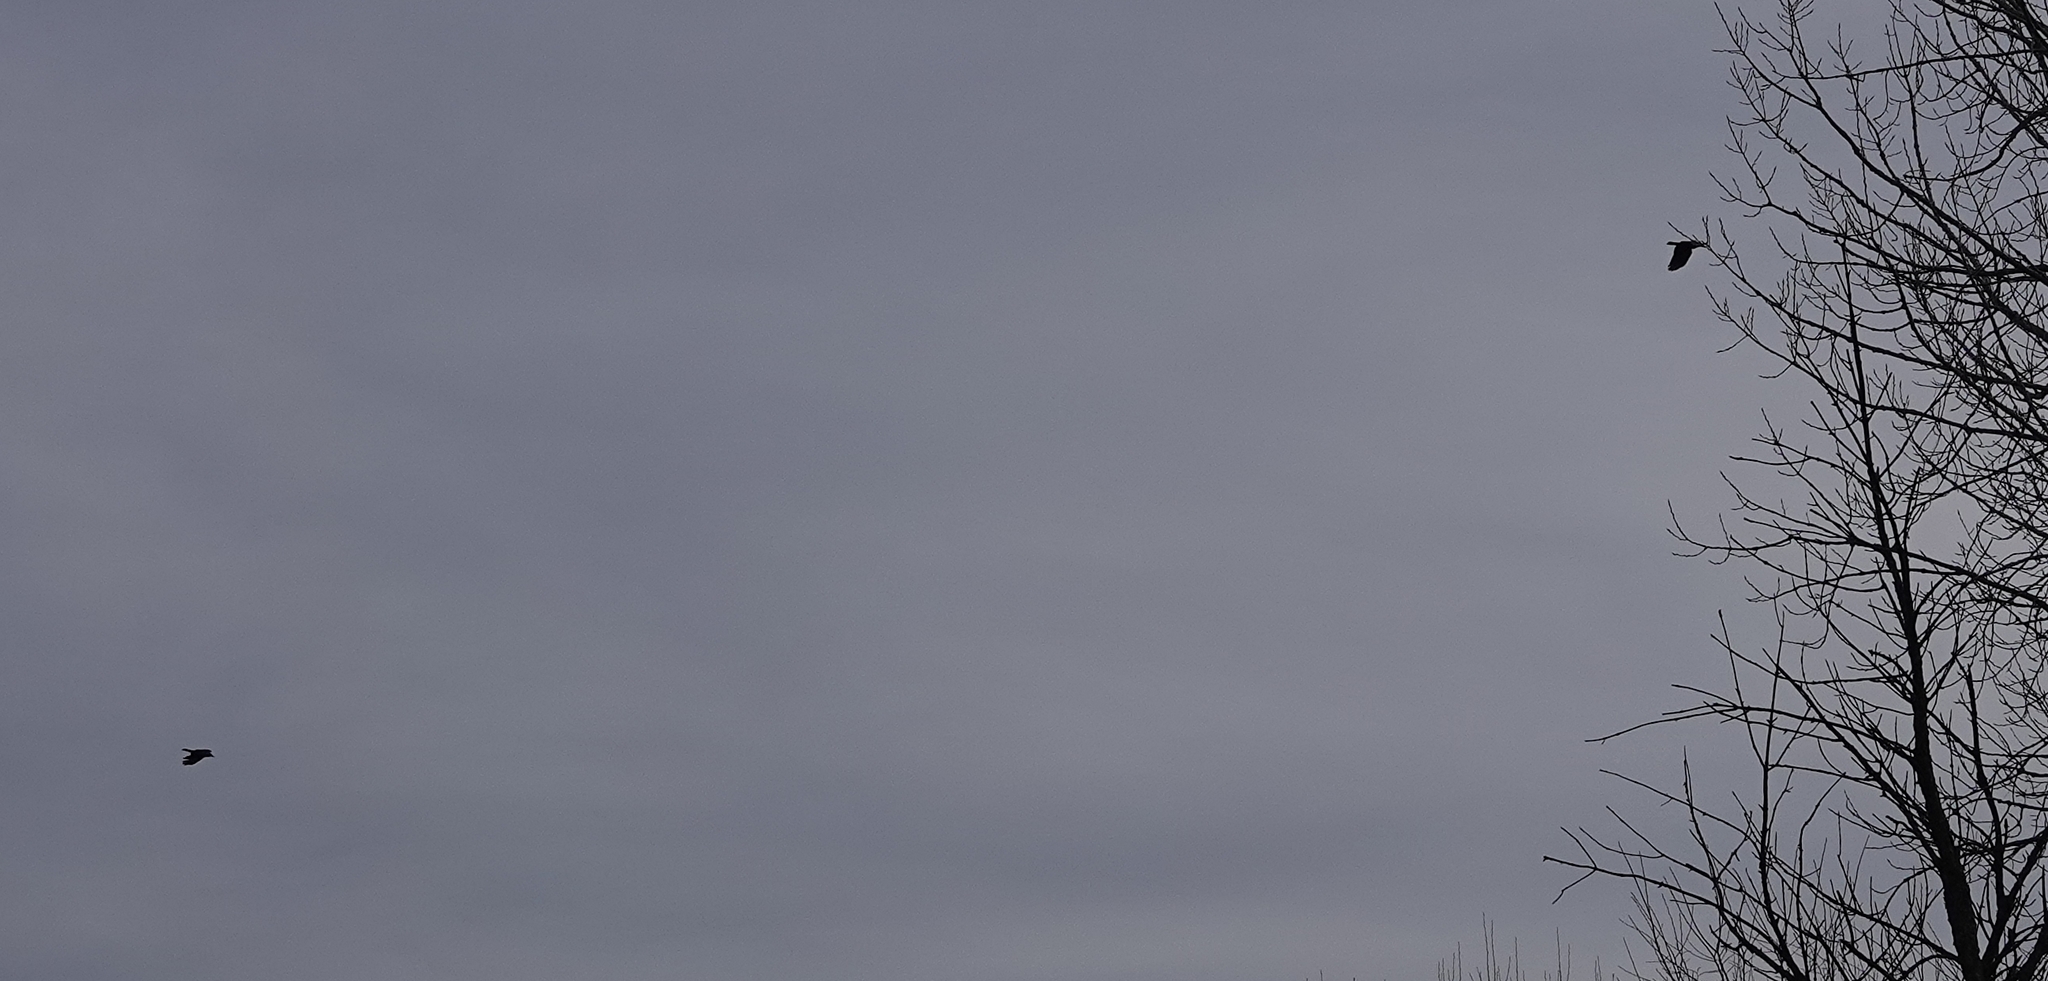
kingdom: Animalia
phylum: Chordata
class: Aves
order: Passeriformes
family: Corvidae
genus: Corvus
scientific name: Corvus brachyrhynchos
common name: American crow
